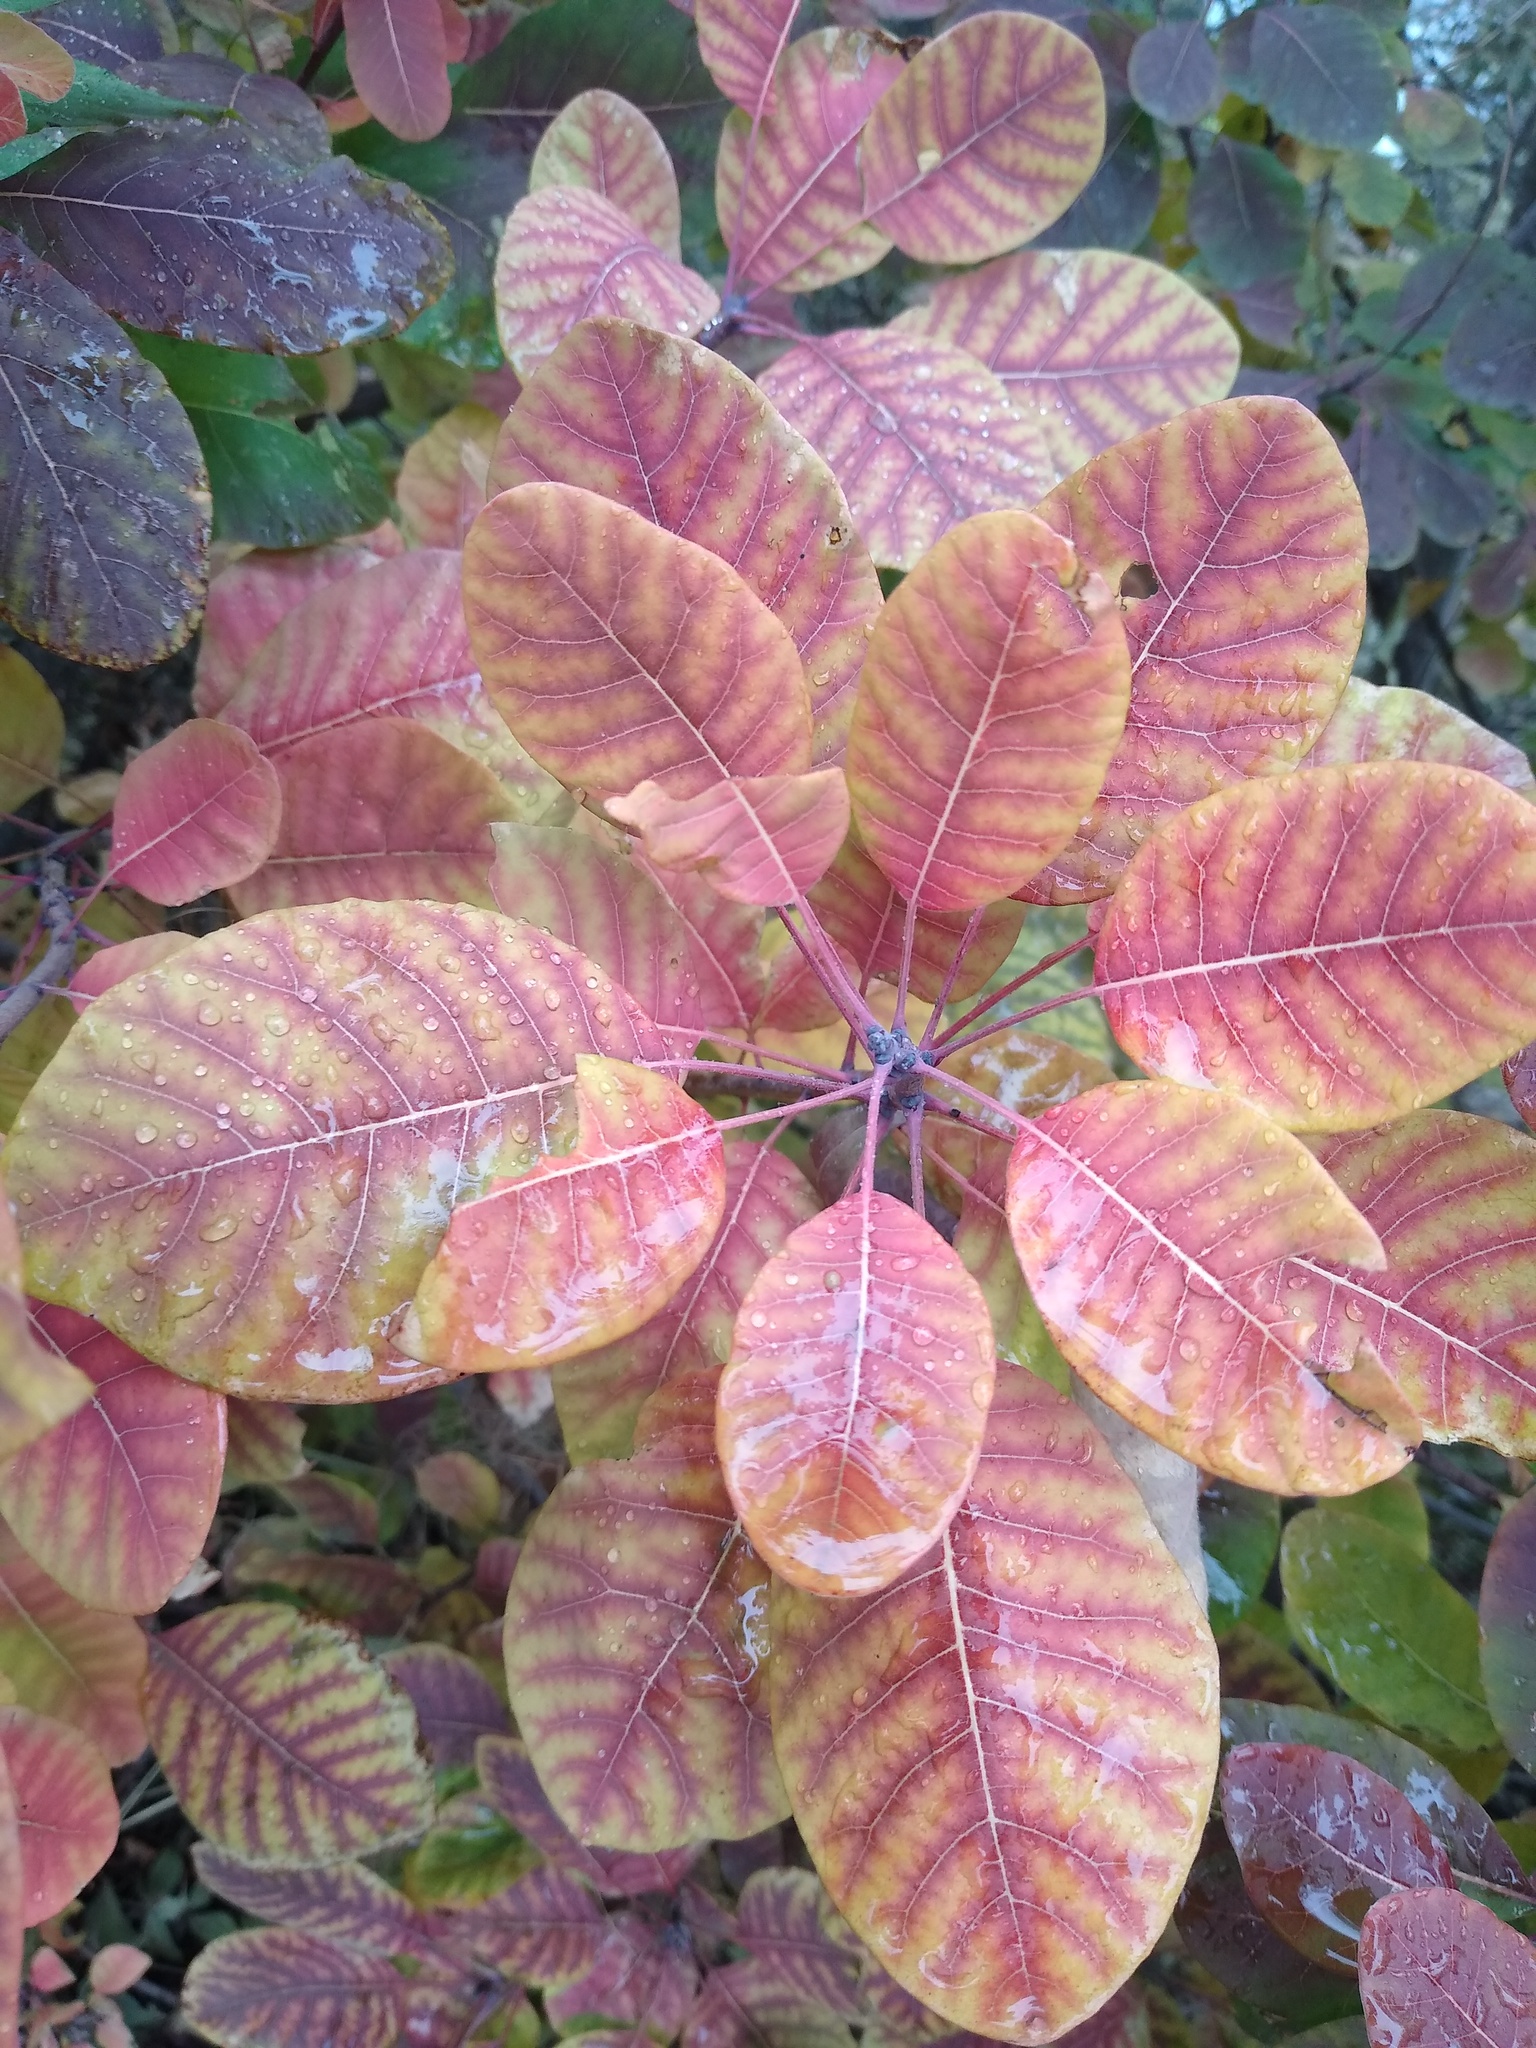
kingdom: Plantae
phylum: Tracheophyta
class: Magnoliopsida
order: Sapindales
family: Anacardiaceae
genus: Cotinus
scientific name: Cotinus coggygria
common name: Smoke-tree
